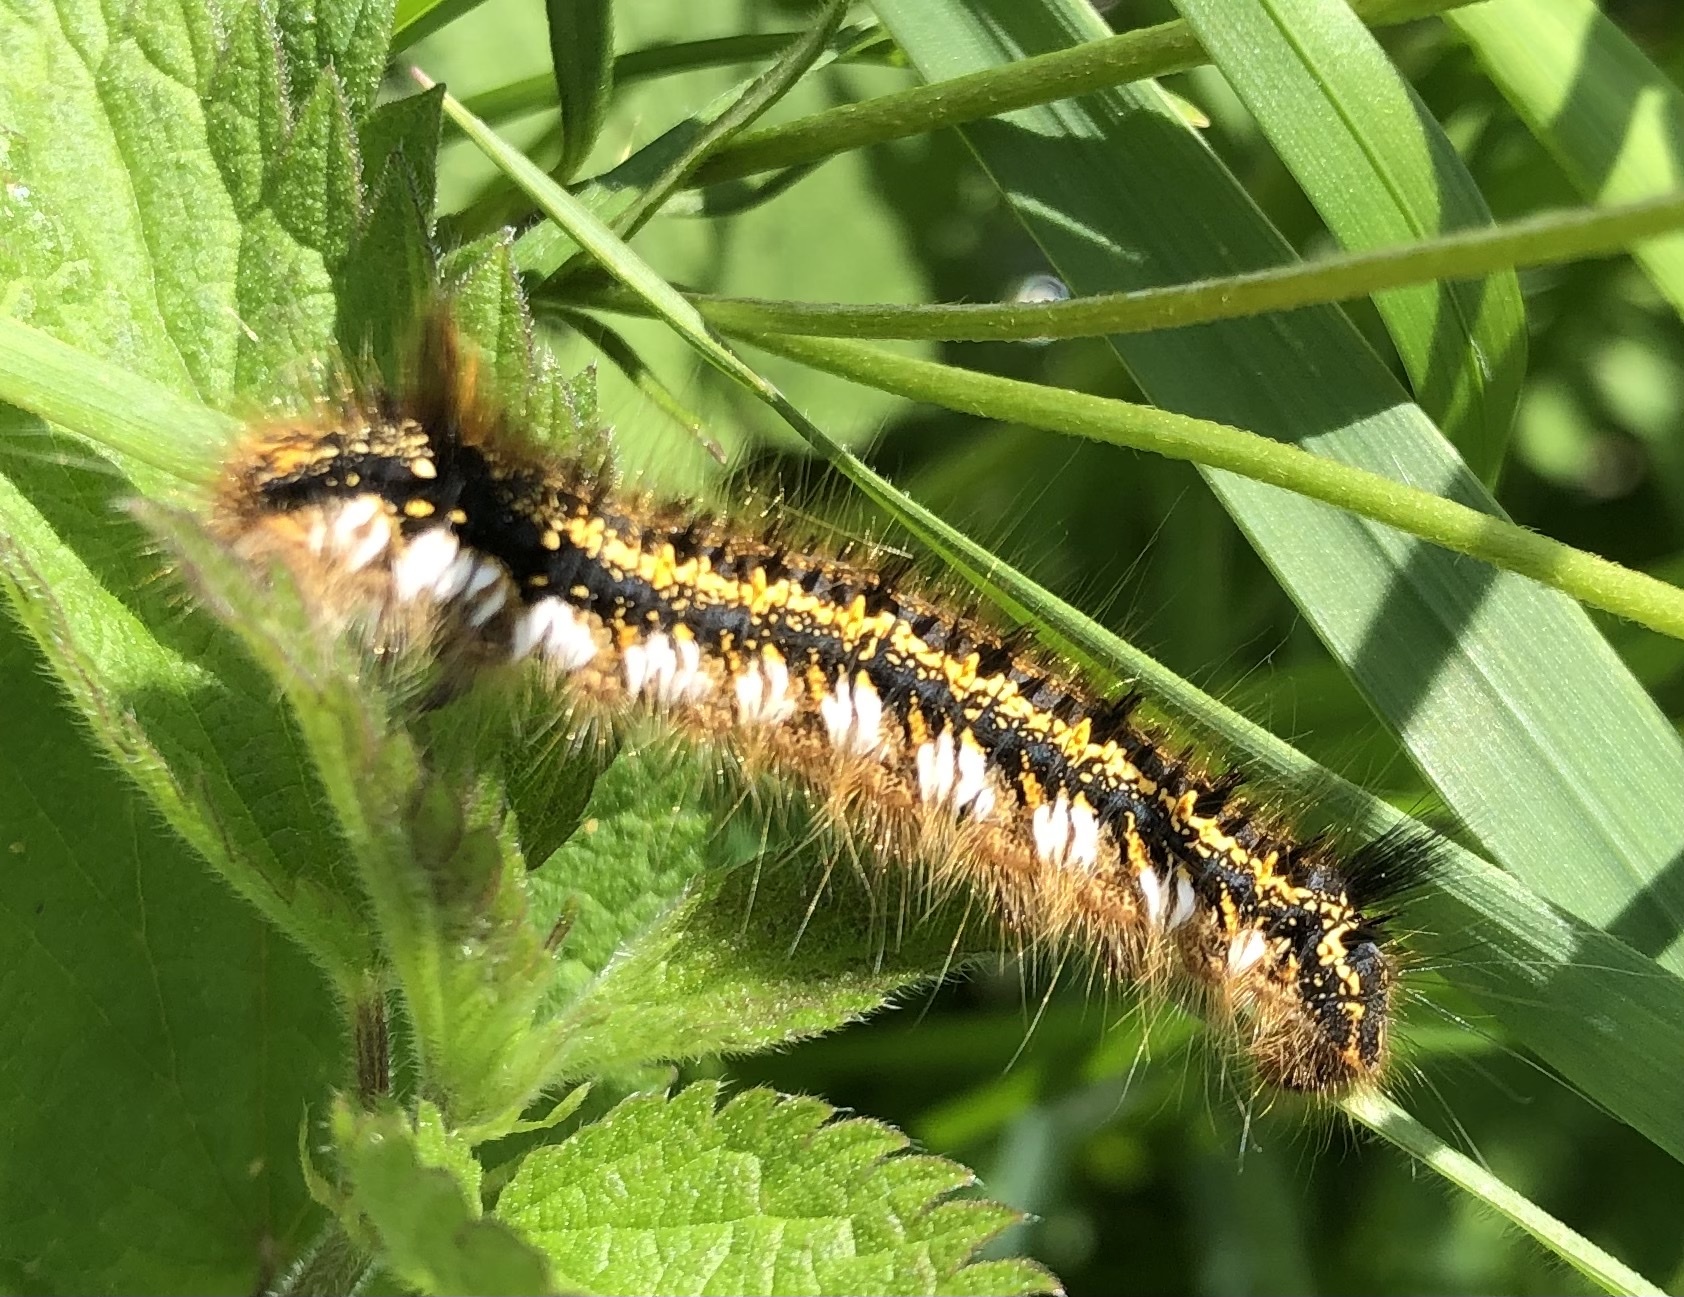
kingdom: Animalia
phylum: Arthropoda
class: Insecta
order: Lepidoptera
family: Lasiocampidae
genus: Euthrix
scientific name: Euthrix potatoria
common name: Drinker
